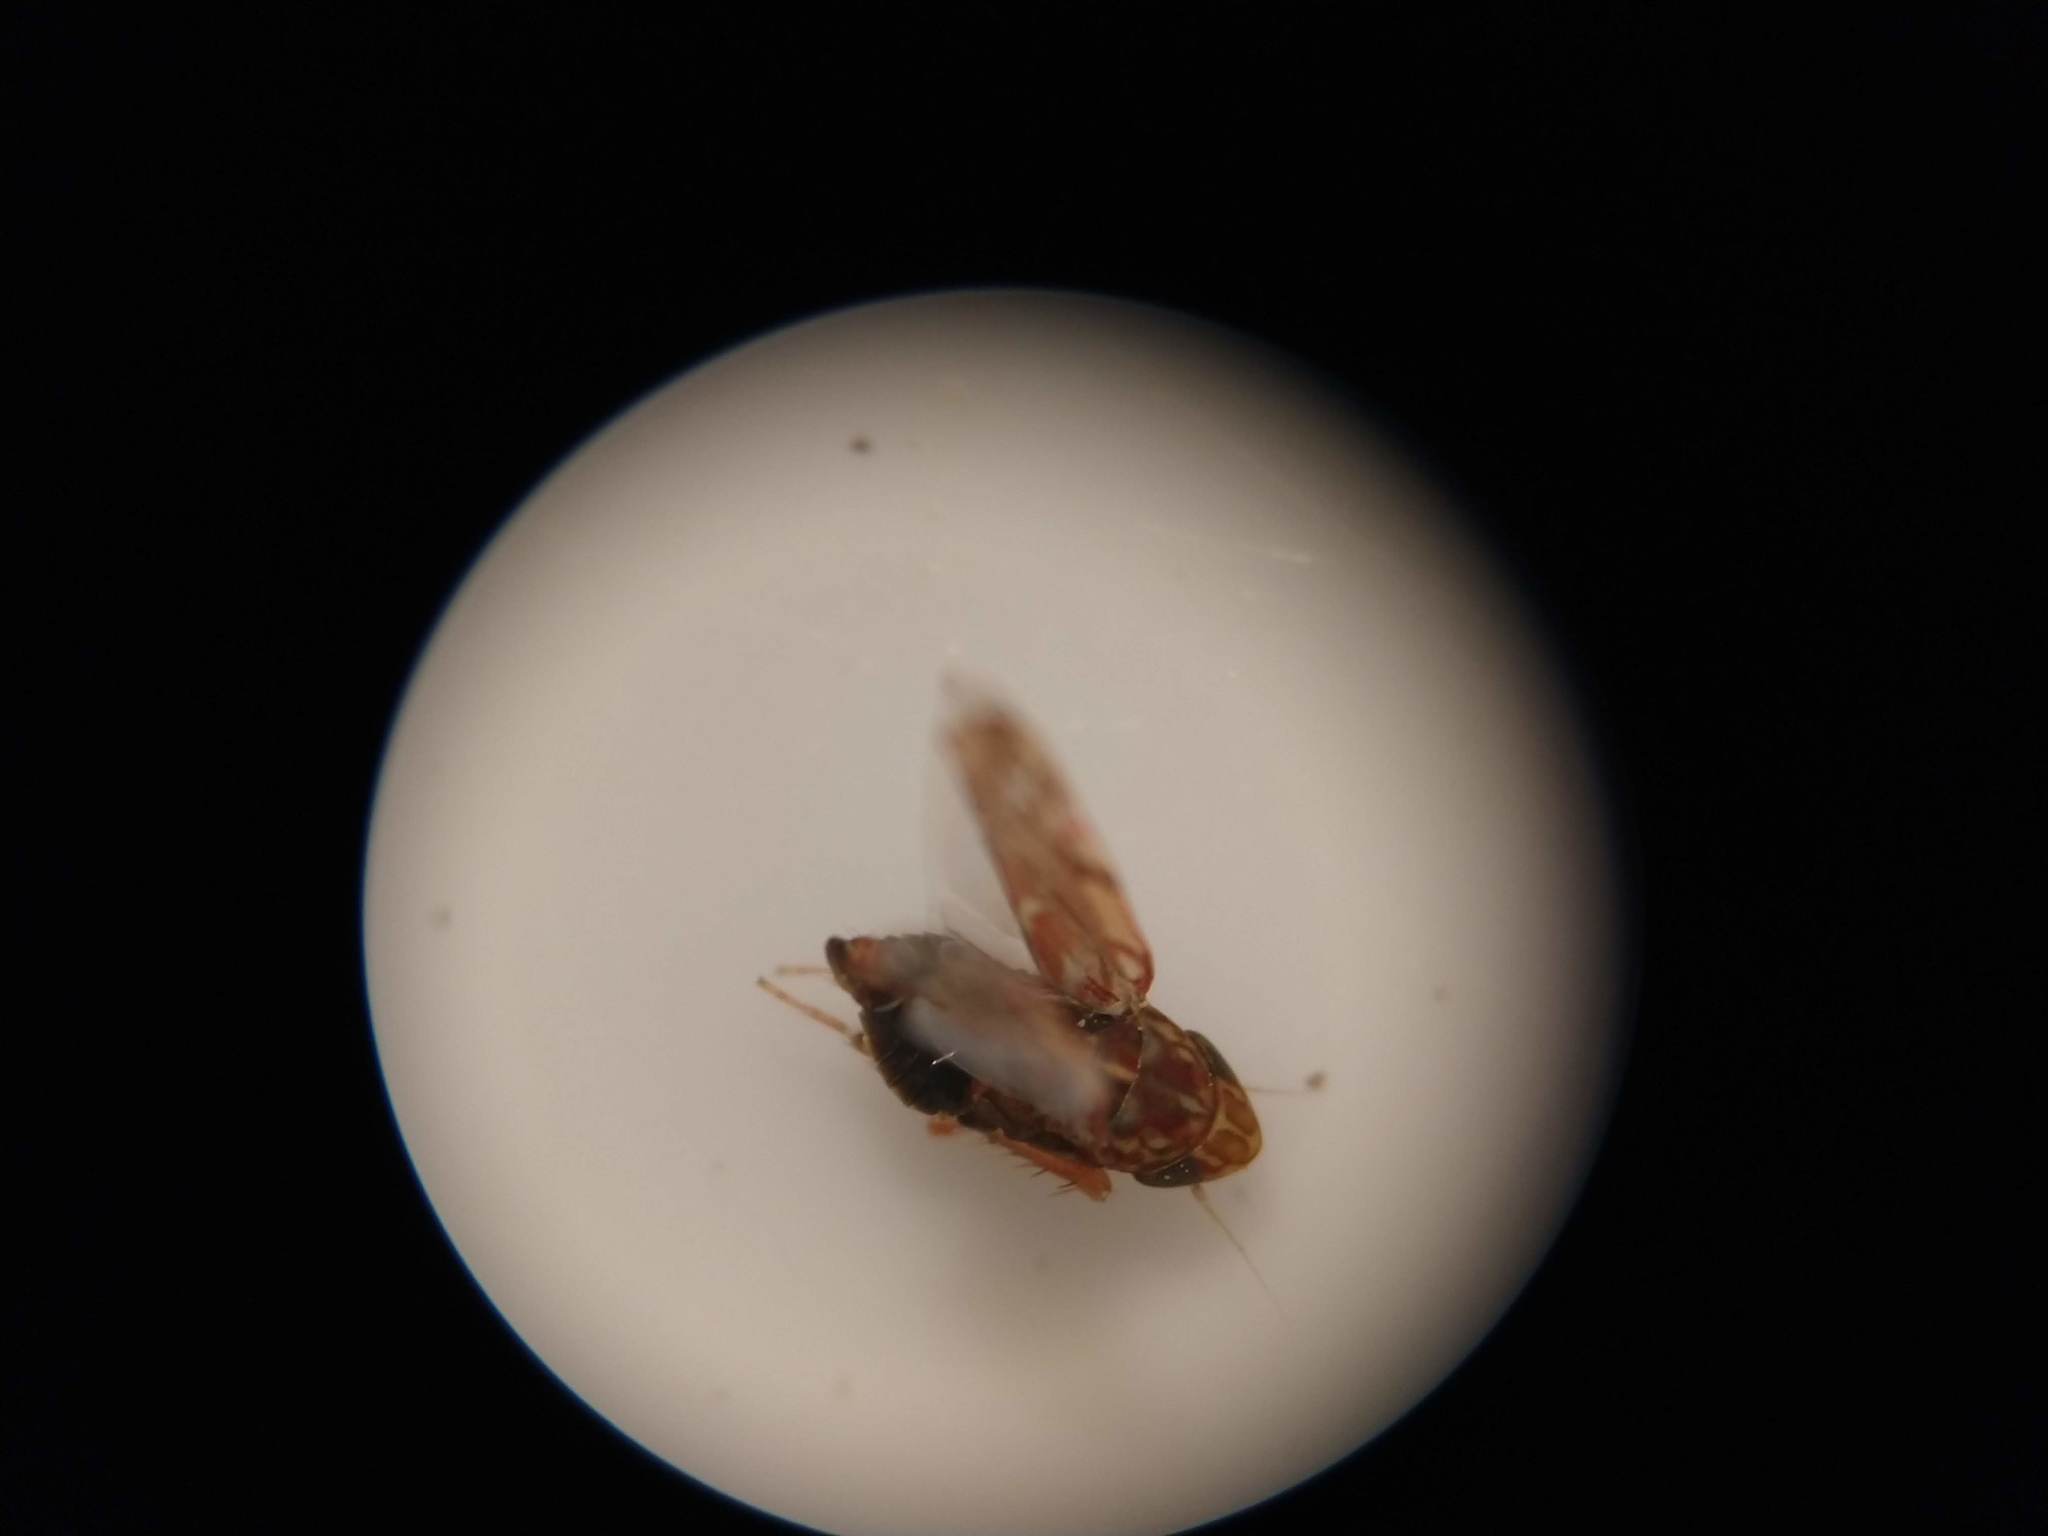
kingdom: Animalia
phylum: Arthropoda
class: Insecta
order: Hemiptera
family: Cicadellidae
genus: Erasmoneura
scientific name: Erasmoneura vulnerata
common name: The wounded leafhopper
